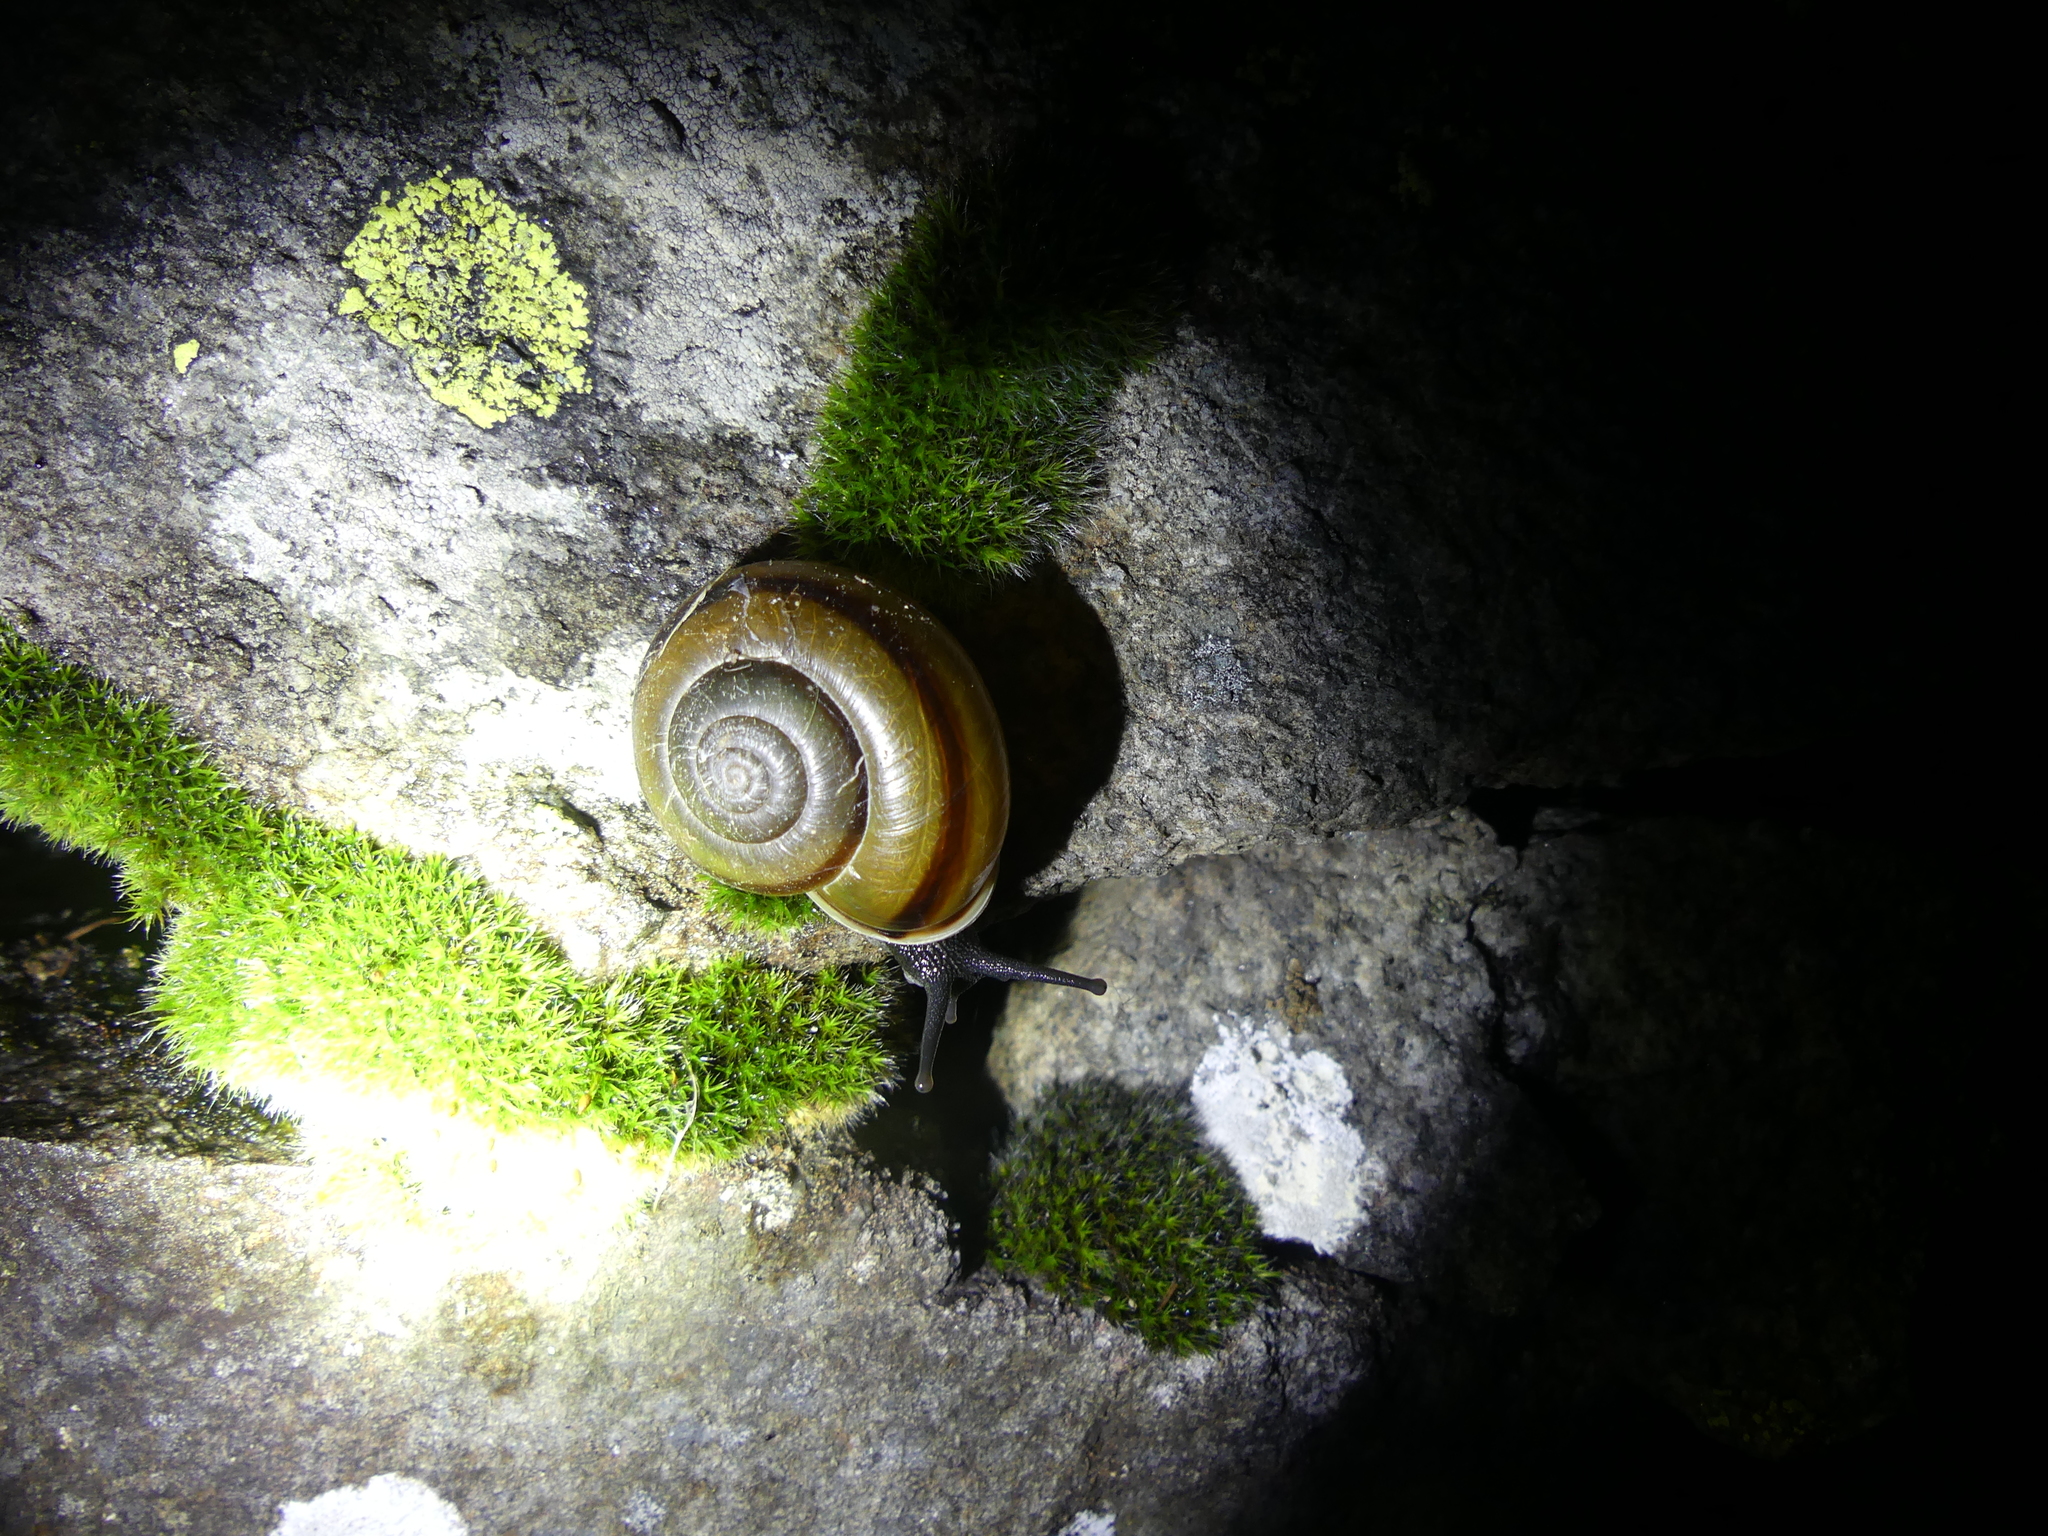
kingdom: Animalia
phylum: Mollusca
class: Gastropoda
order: Stylommatophora
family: Helicidae
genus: Chilostoma
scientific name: Chilostoma adelozona
